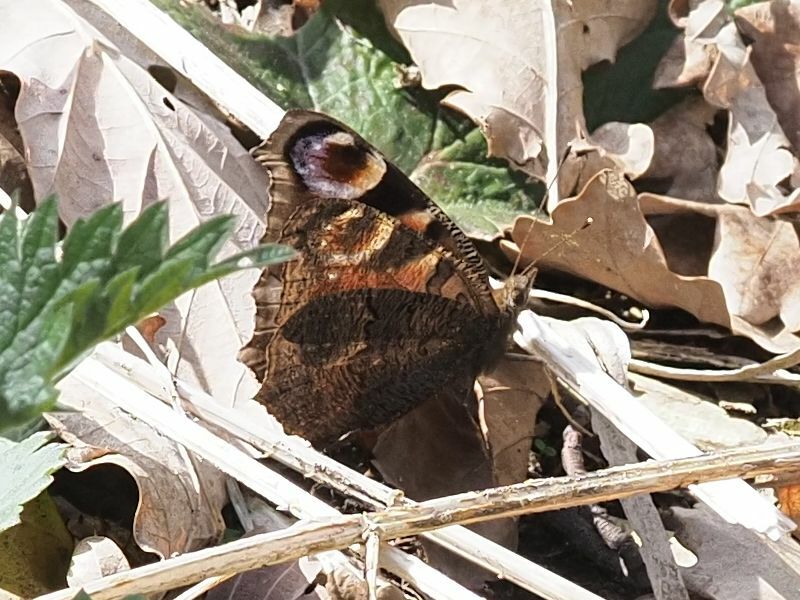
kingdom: Animalia
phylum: Arthropoda
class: Insecta
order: Lepidoptera
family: Nymphalidae
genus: Aglais
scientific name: Aglais io
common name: Peacock
